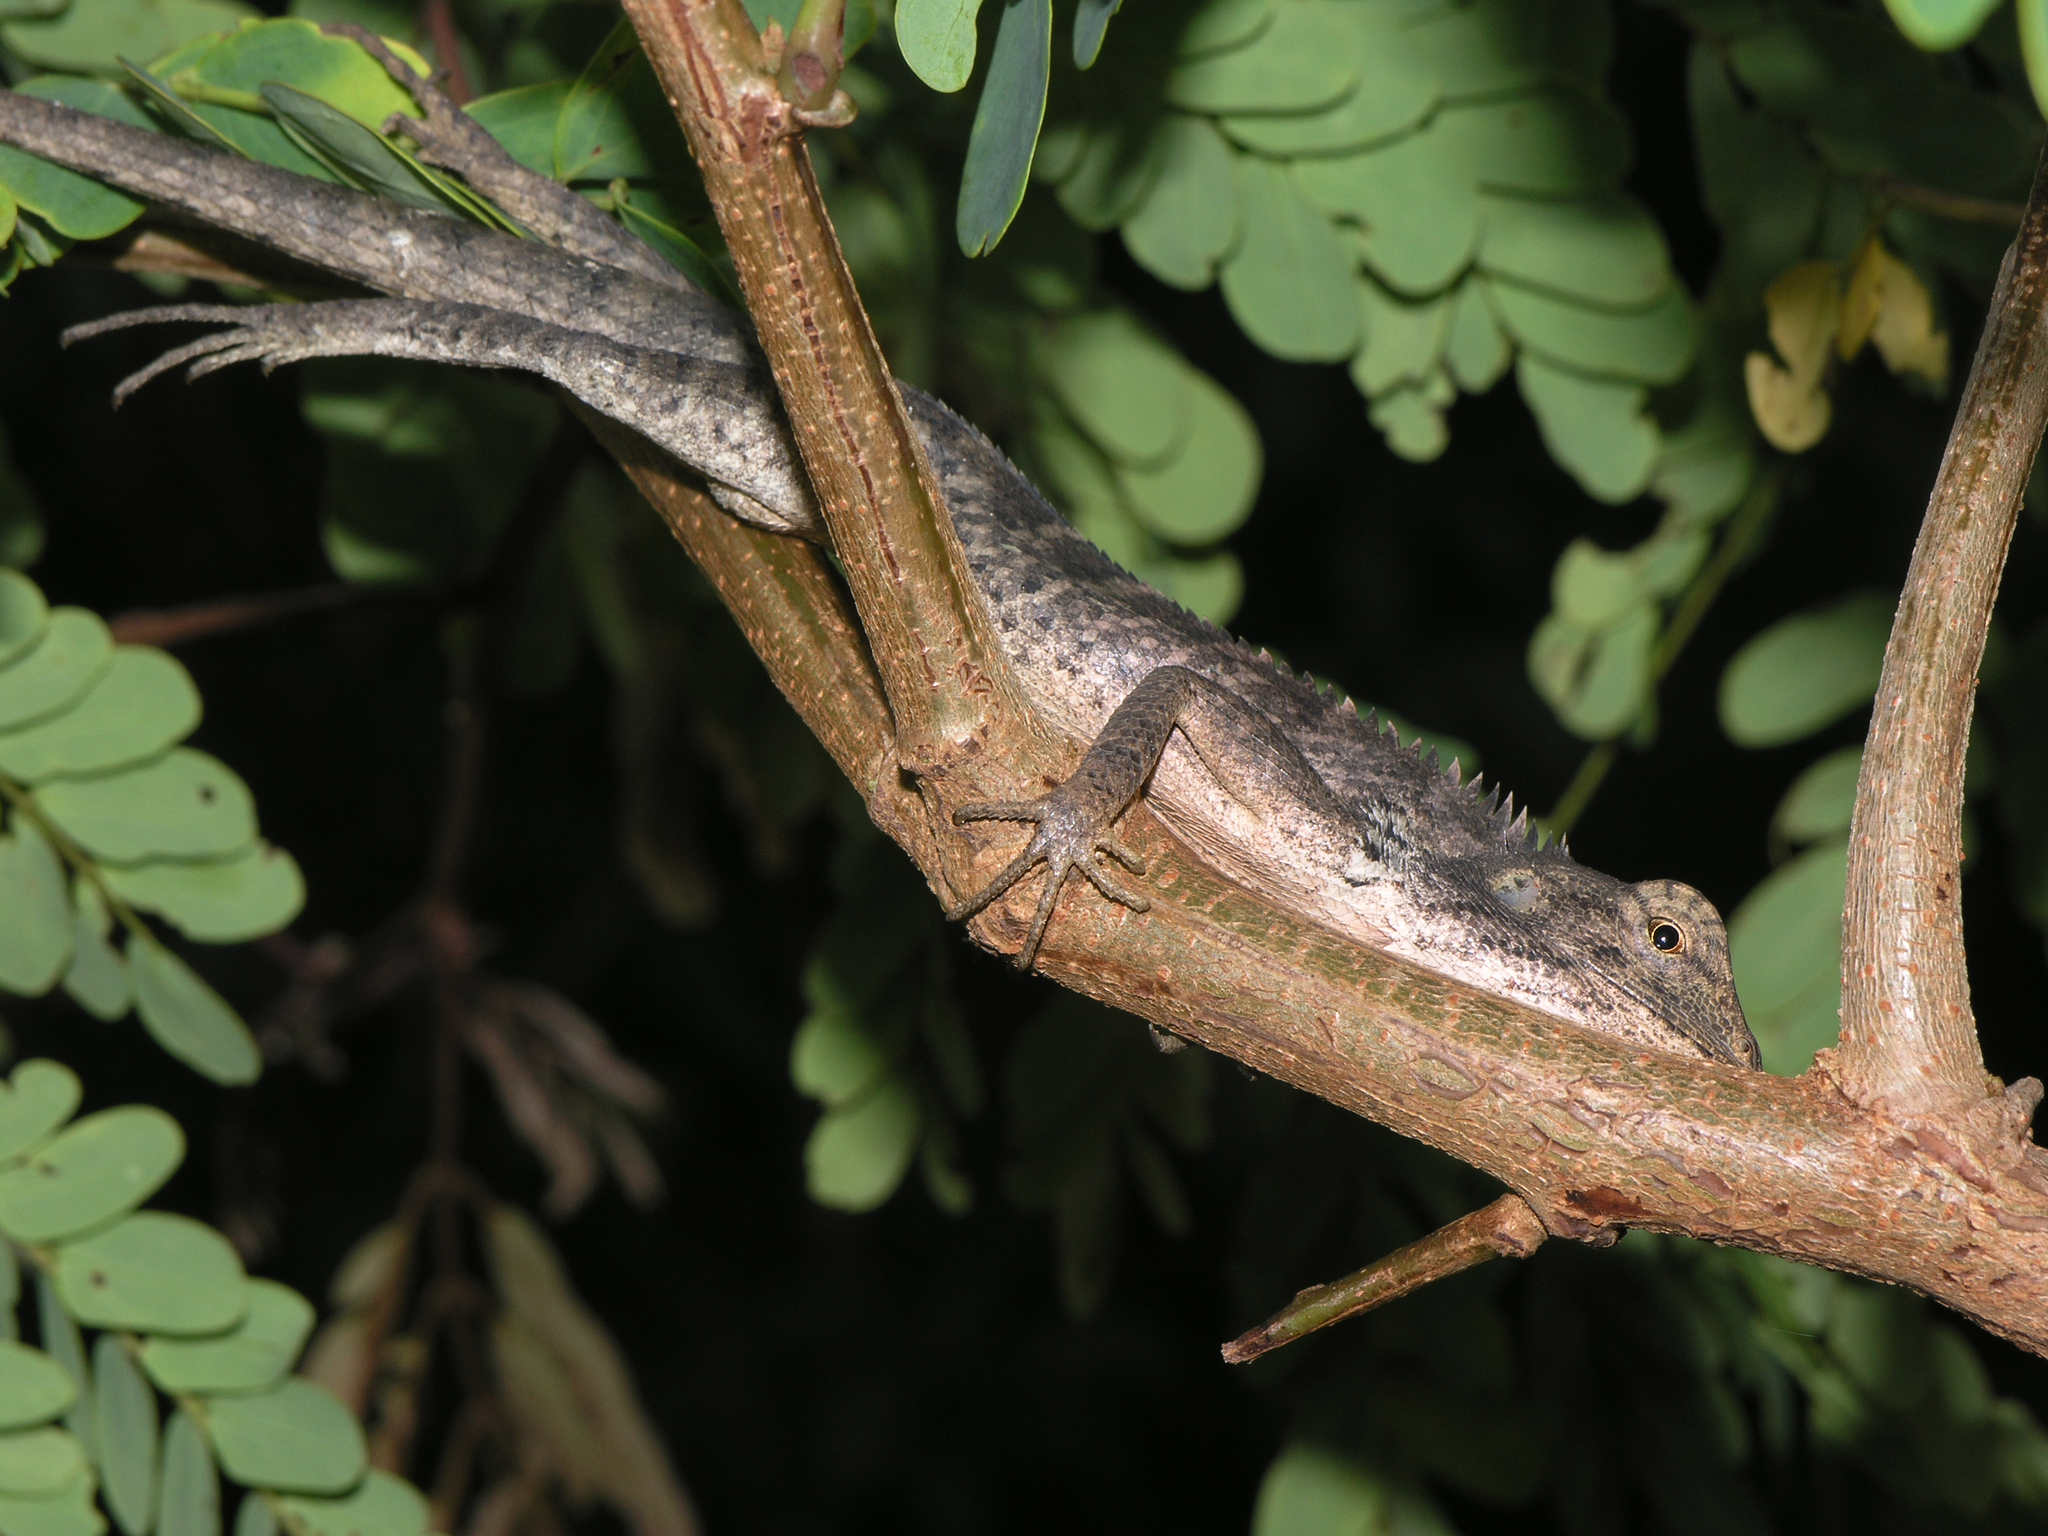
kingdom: Animalia
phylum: Chordata
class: Squamata
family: Agamidae
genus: Calotes
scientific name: Calotes versicolor
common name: Oriental garden lizard
